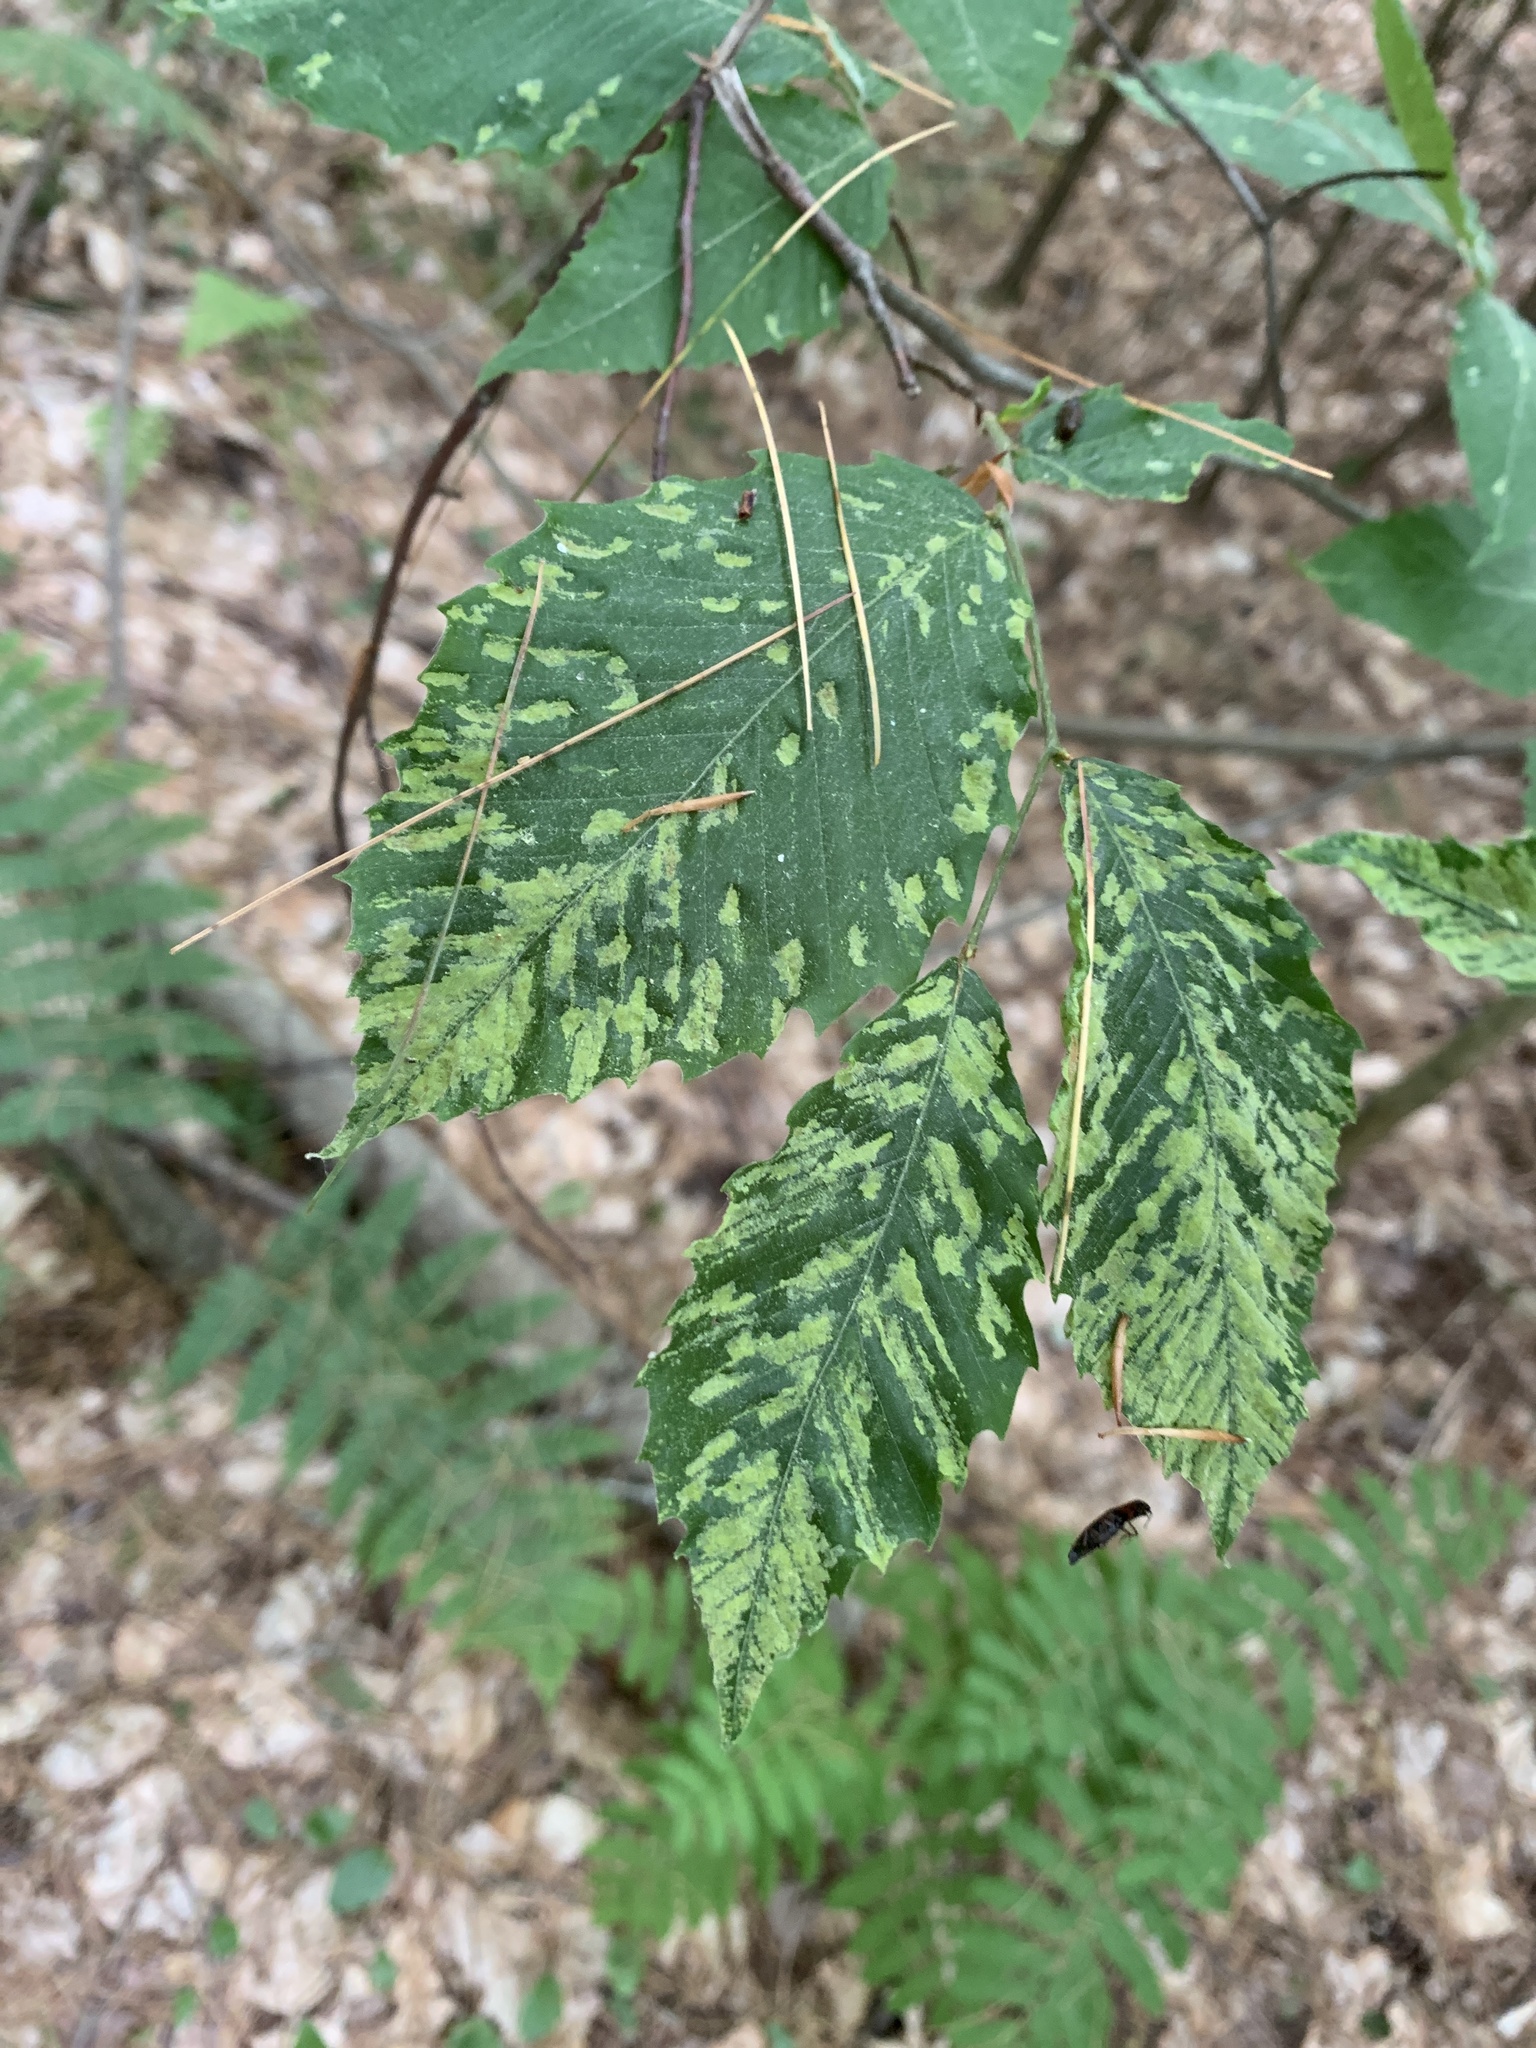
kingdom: Animalia
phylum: Arthropoda
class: Arachnida
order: Trombidiformes
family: Eriophyidae
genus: Acalitus
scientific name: Acalitus
